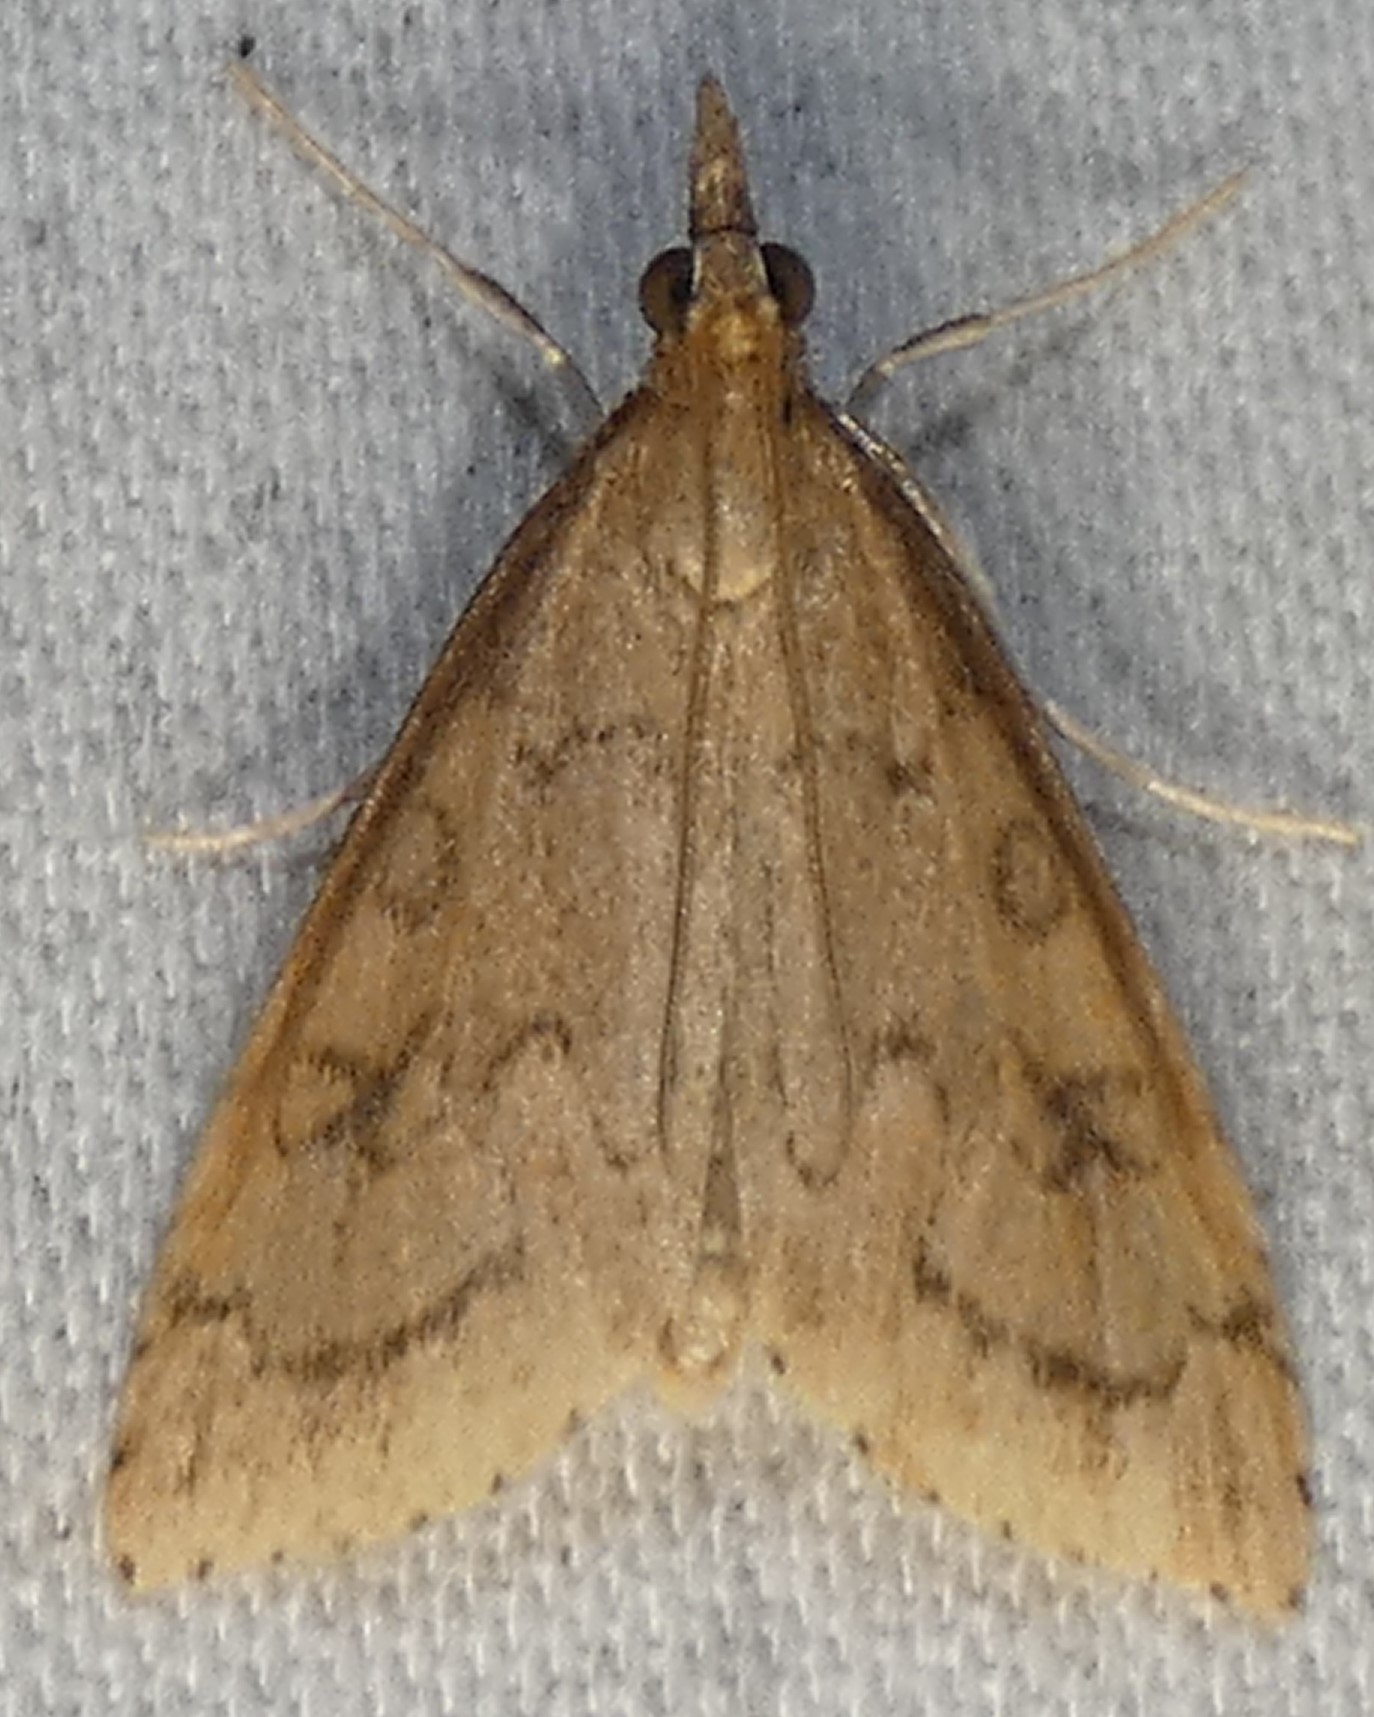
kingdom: Animalia
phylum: Arthropoda
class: Insecta
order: Lepidoptera
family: Crambidae
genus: Udea
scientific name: Udea rubigalis
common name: Celery leaftier moth
